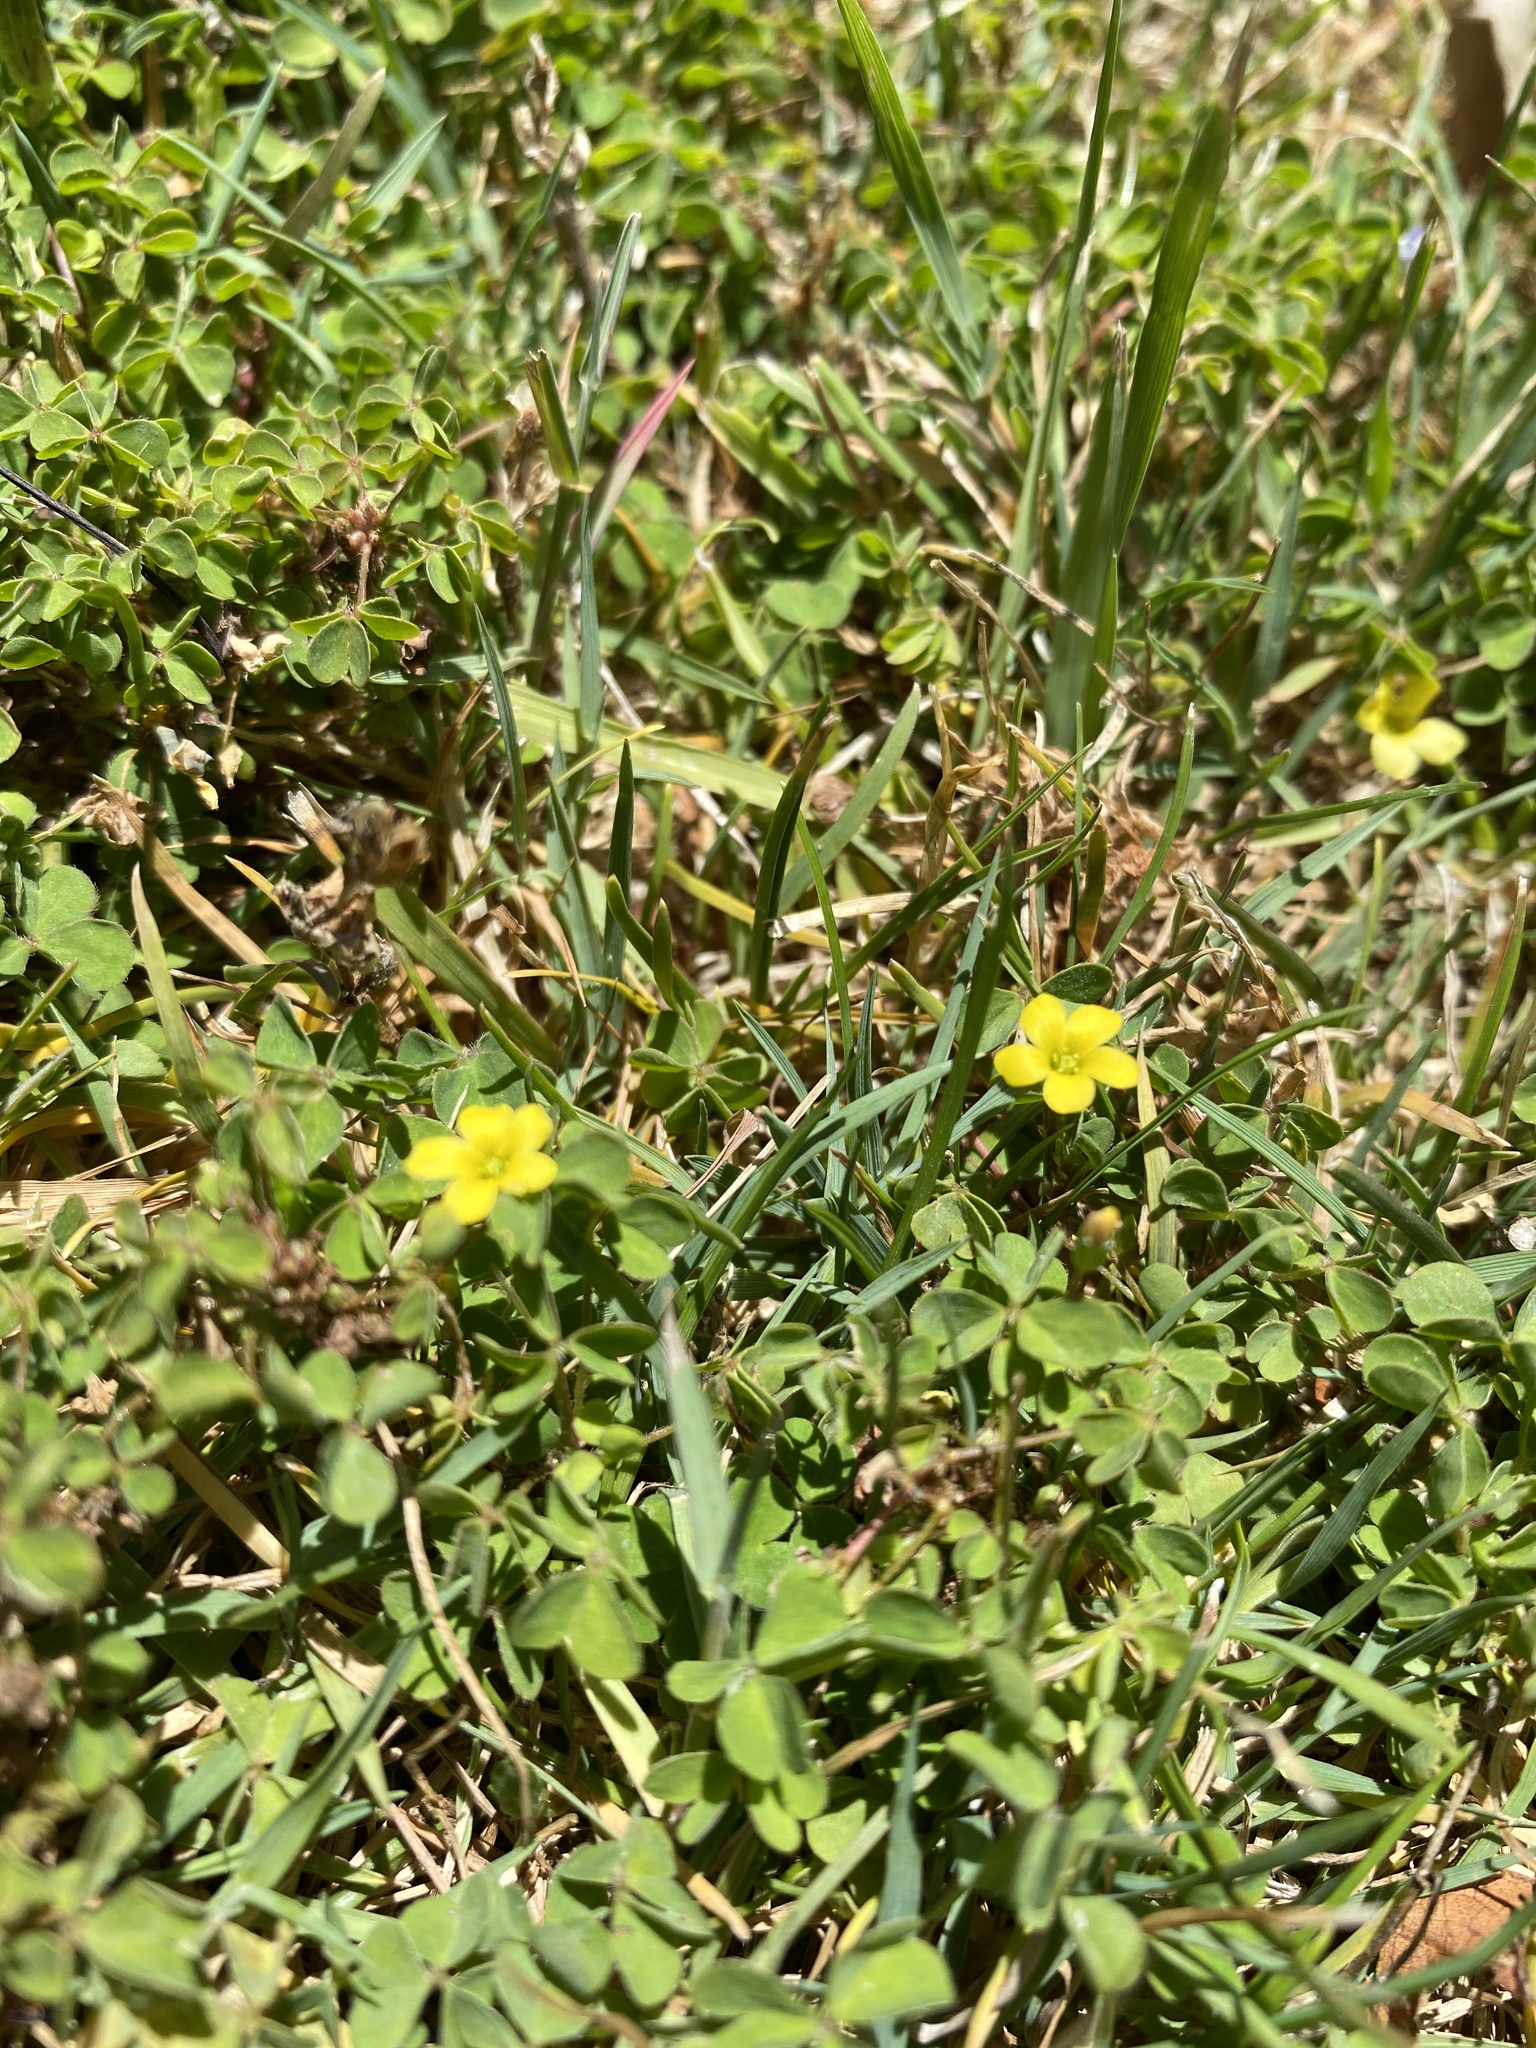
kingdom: Plantae
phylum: Tracheophyta
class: Magnoliopsida
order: Oxalidales
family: Oxalidaceae
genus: Oxalis
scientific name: Oxalis corniculata
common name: Procumbent yellow-sorrel
